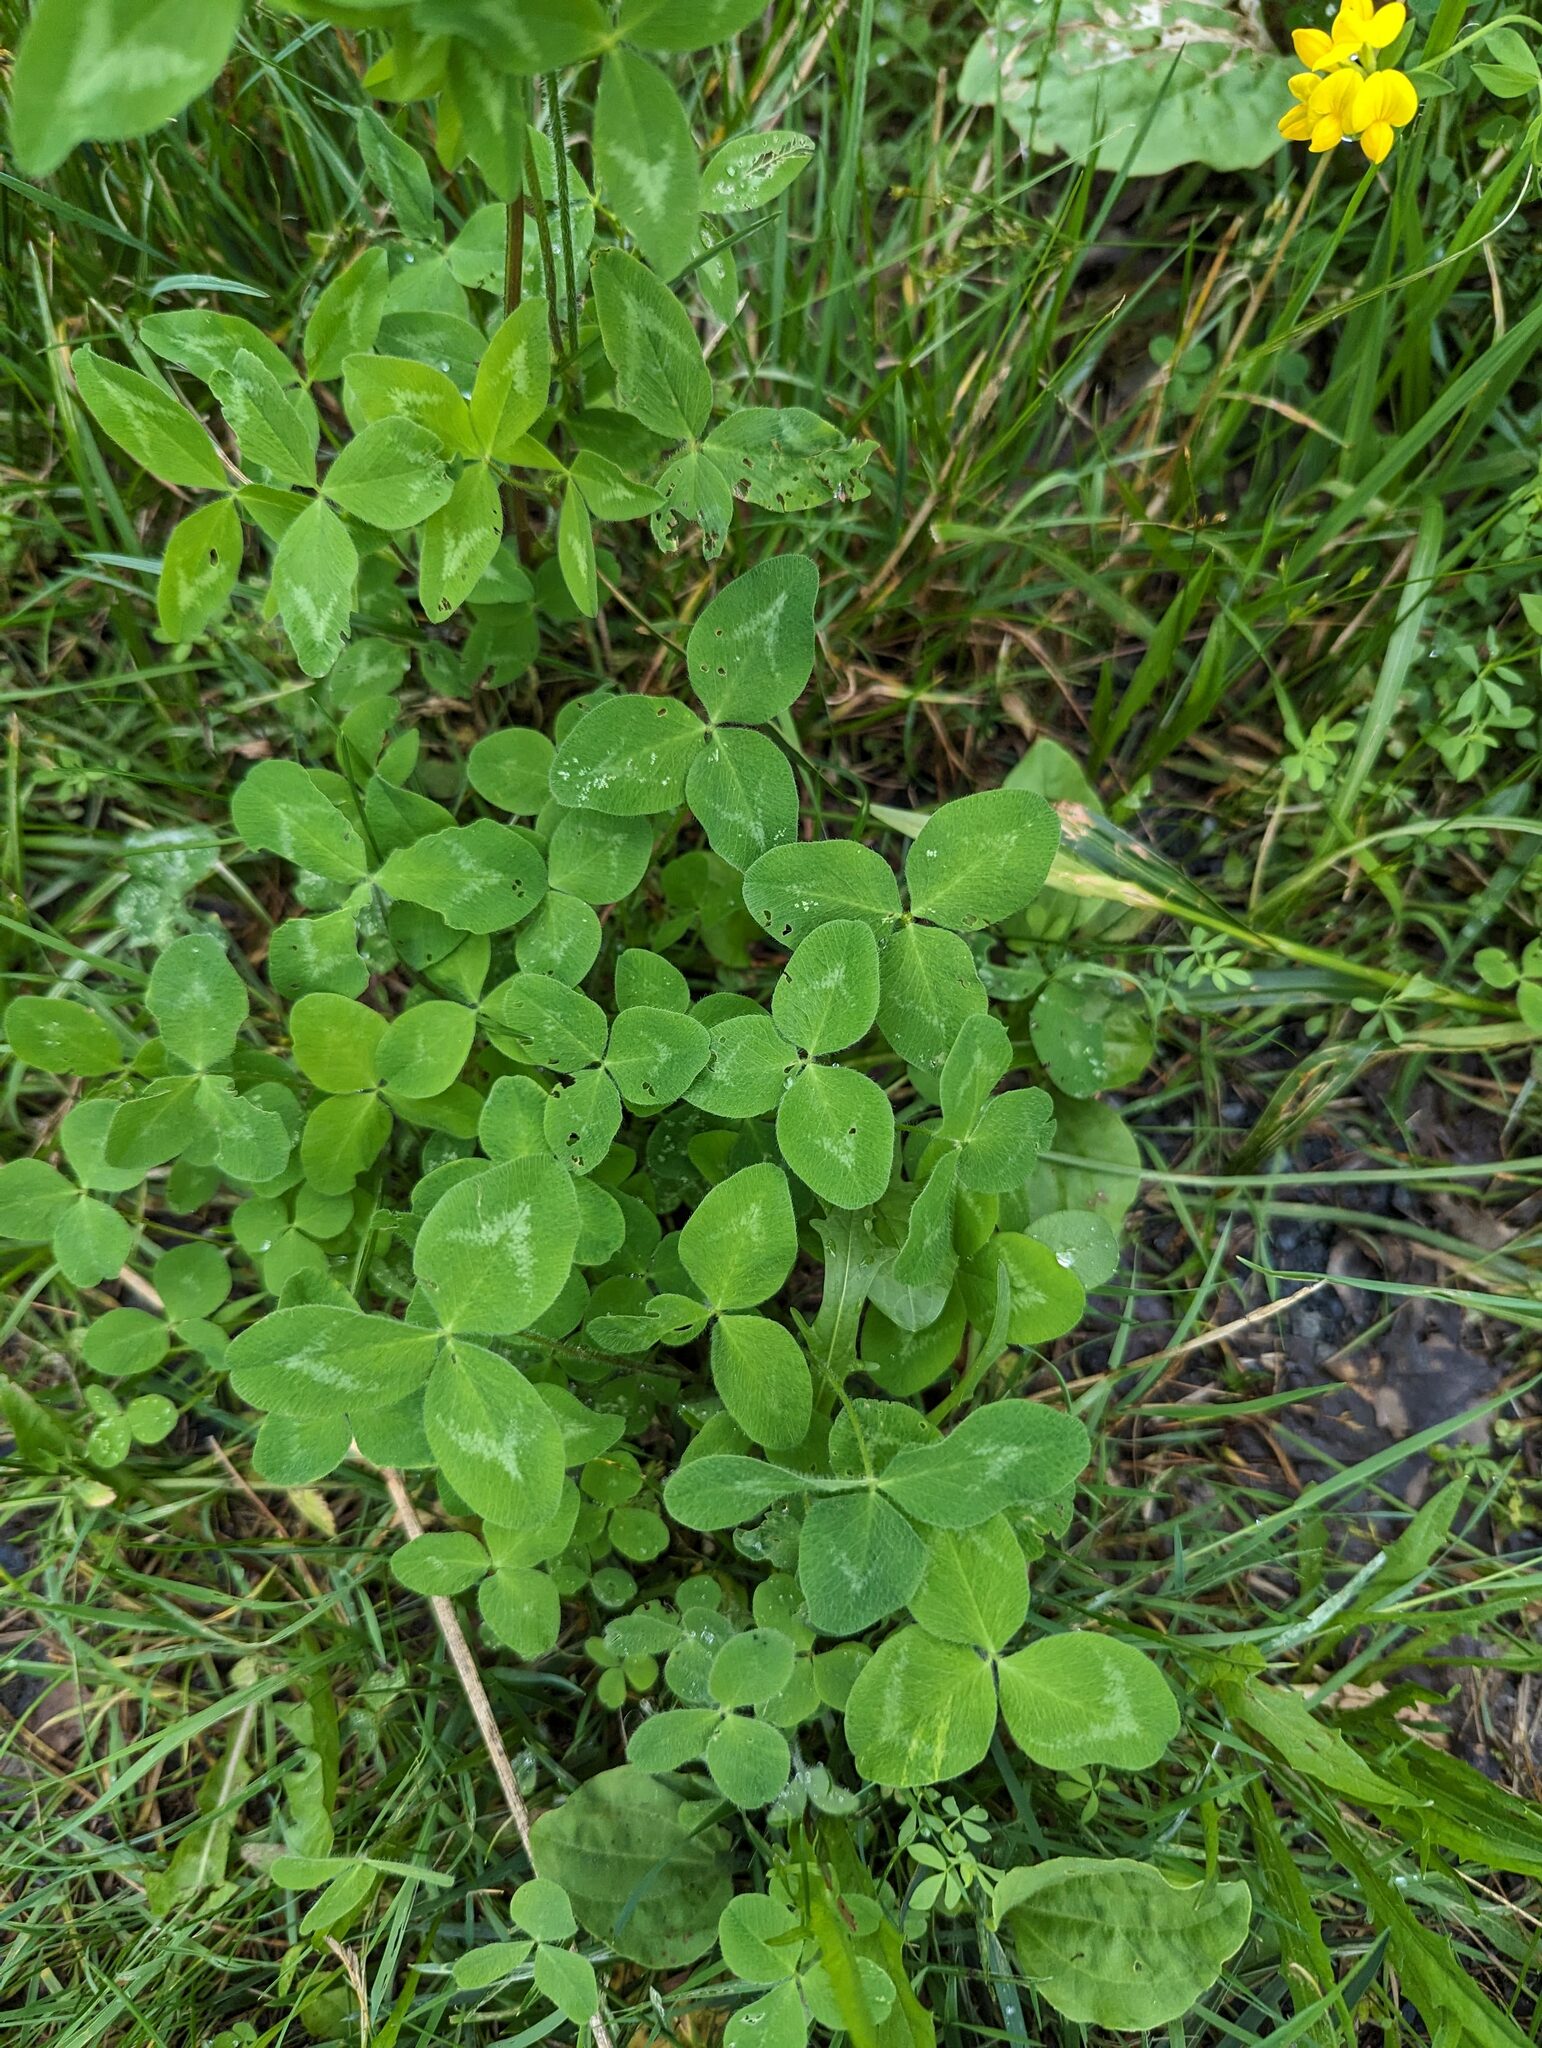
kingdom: Plantae
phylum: Tracheophyta
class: Magnoliopsida
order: Fabales
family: Fabaceae
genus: Trifolium
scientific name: Trifolium pratense
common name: Red clover
